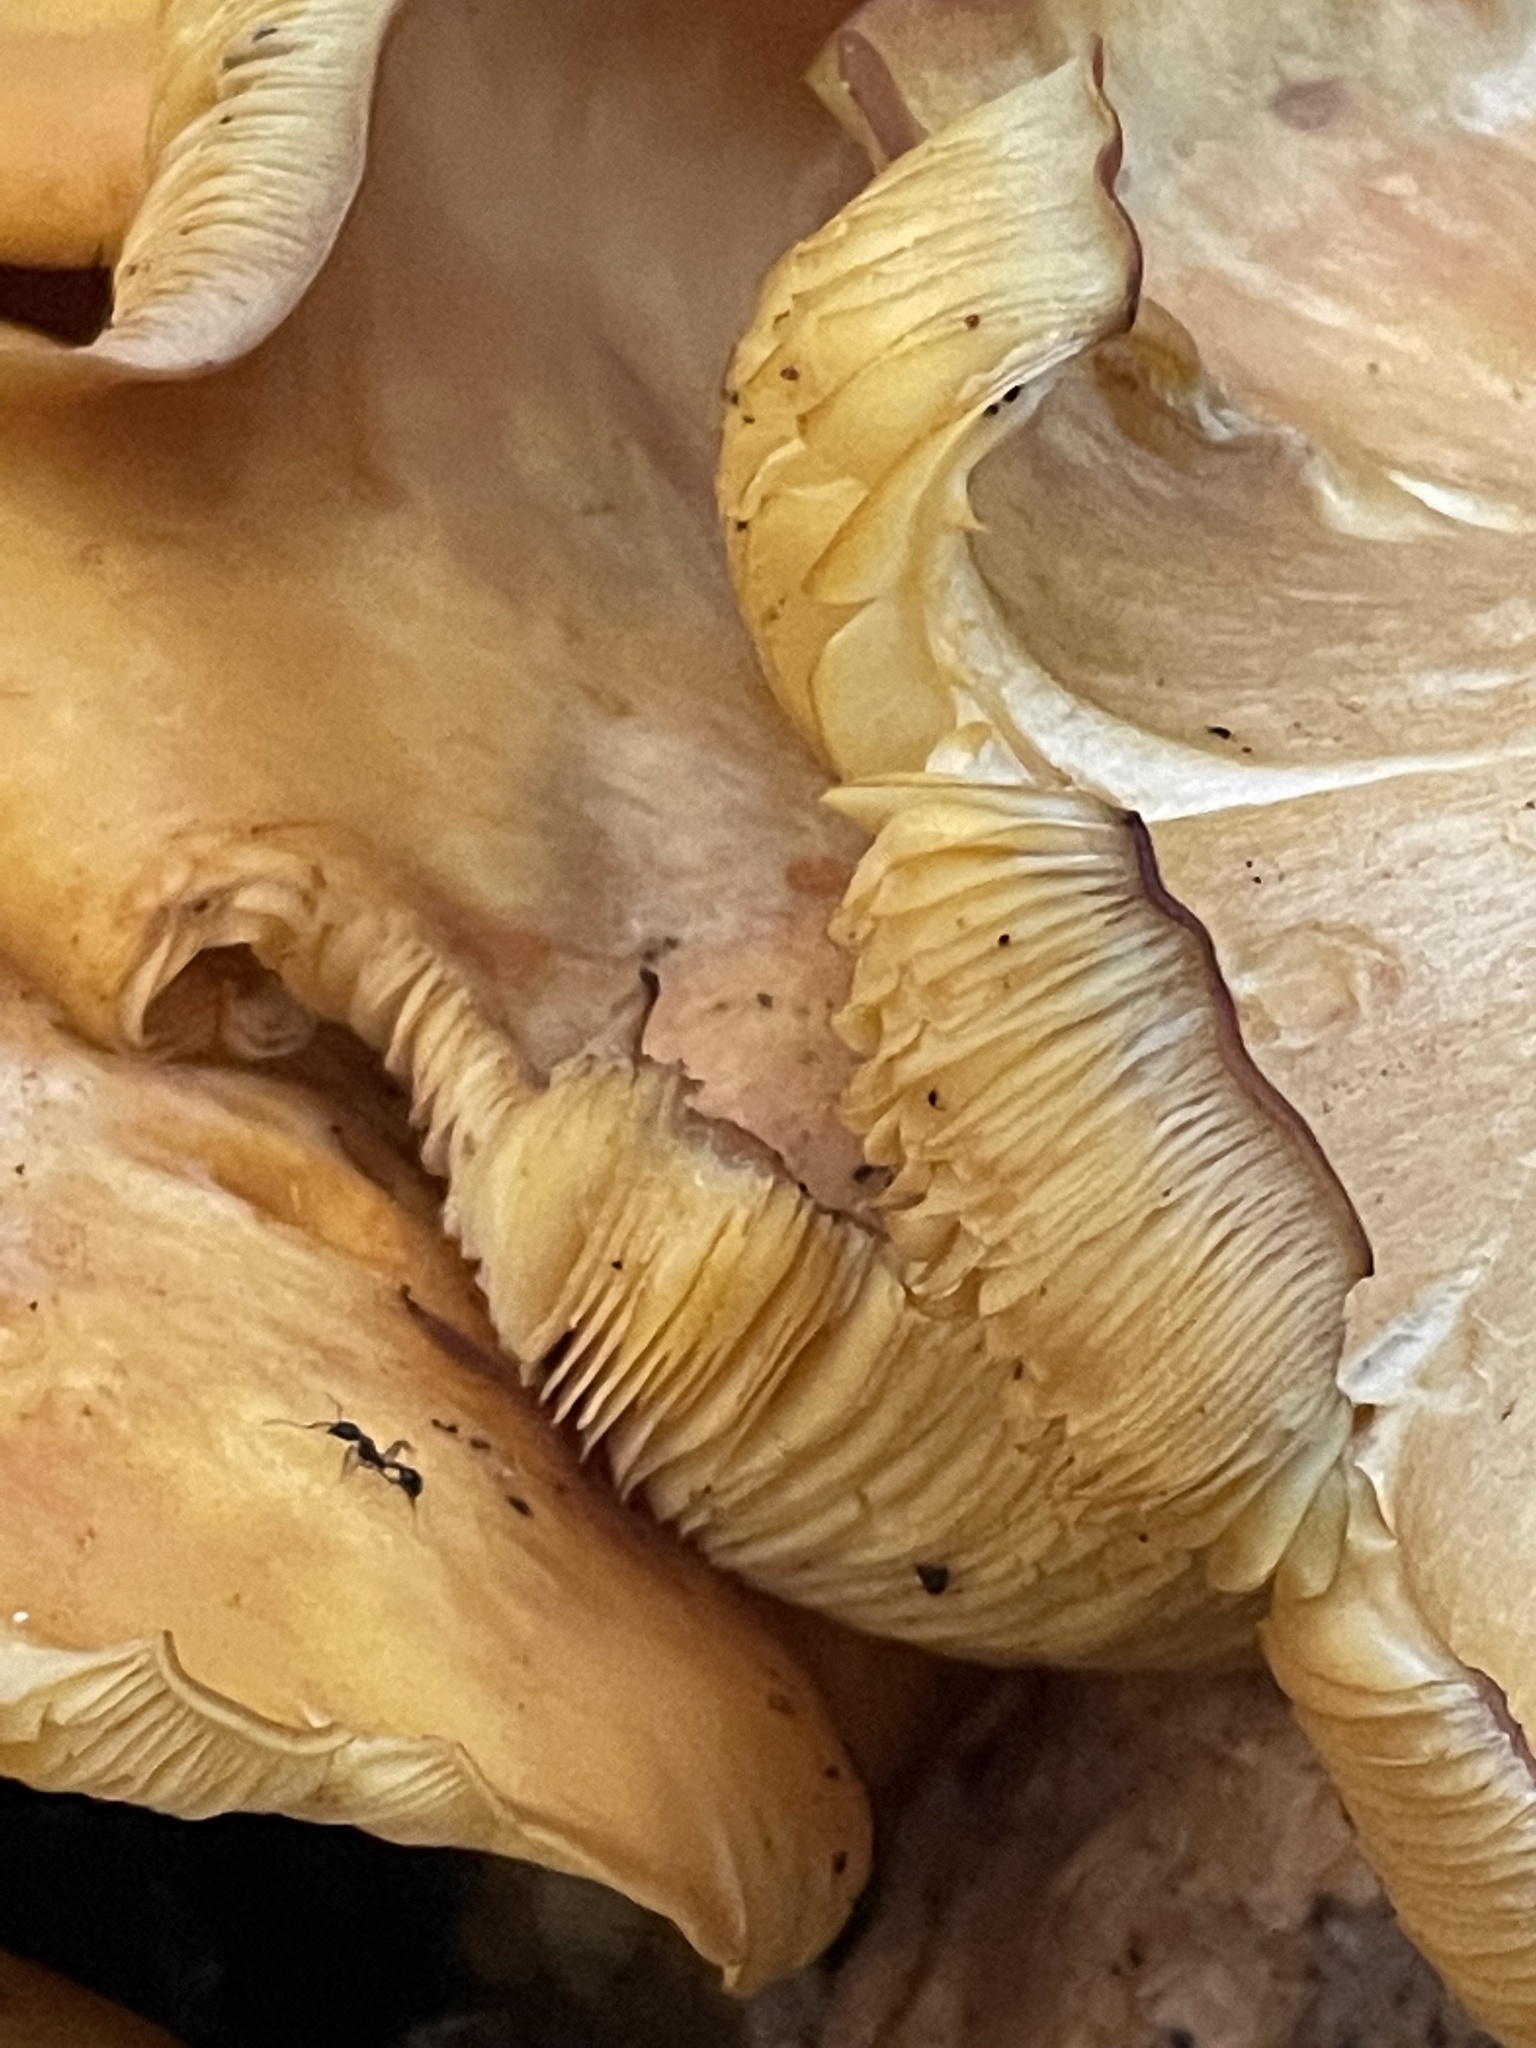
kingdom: Fungi
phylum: Basidiomycota
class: Agaricomycetes
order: Agaricales
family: Omphalotaceae
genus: Omphalotus
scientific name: Omphalotus illudens
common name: Jack o lantern
